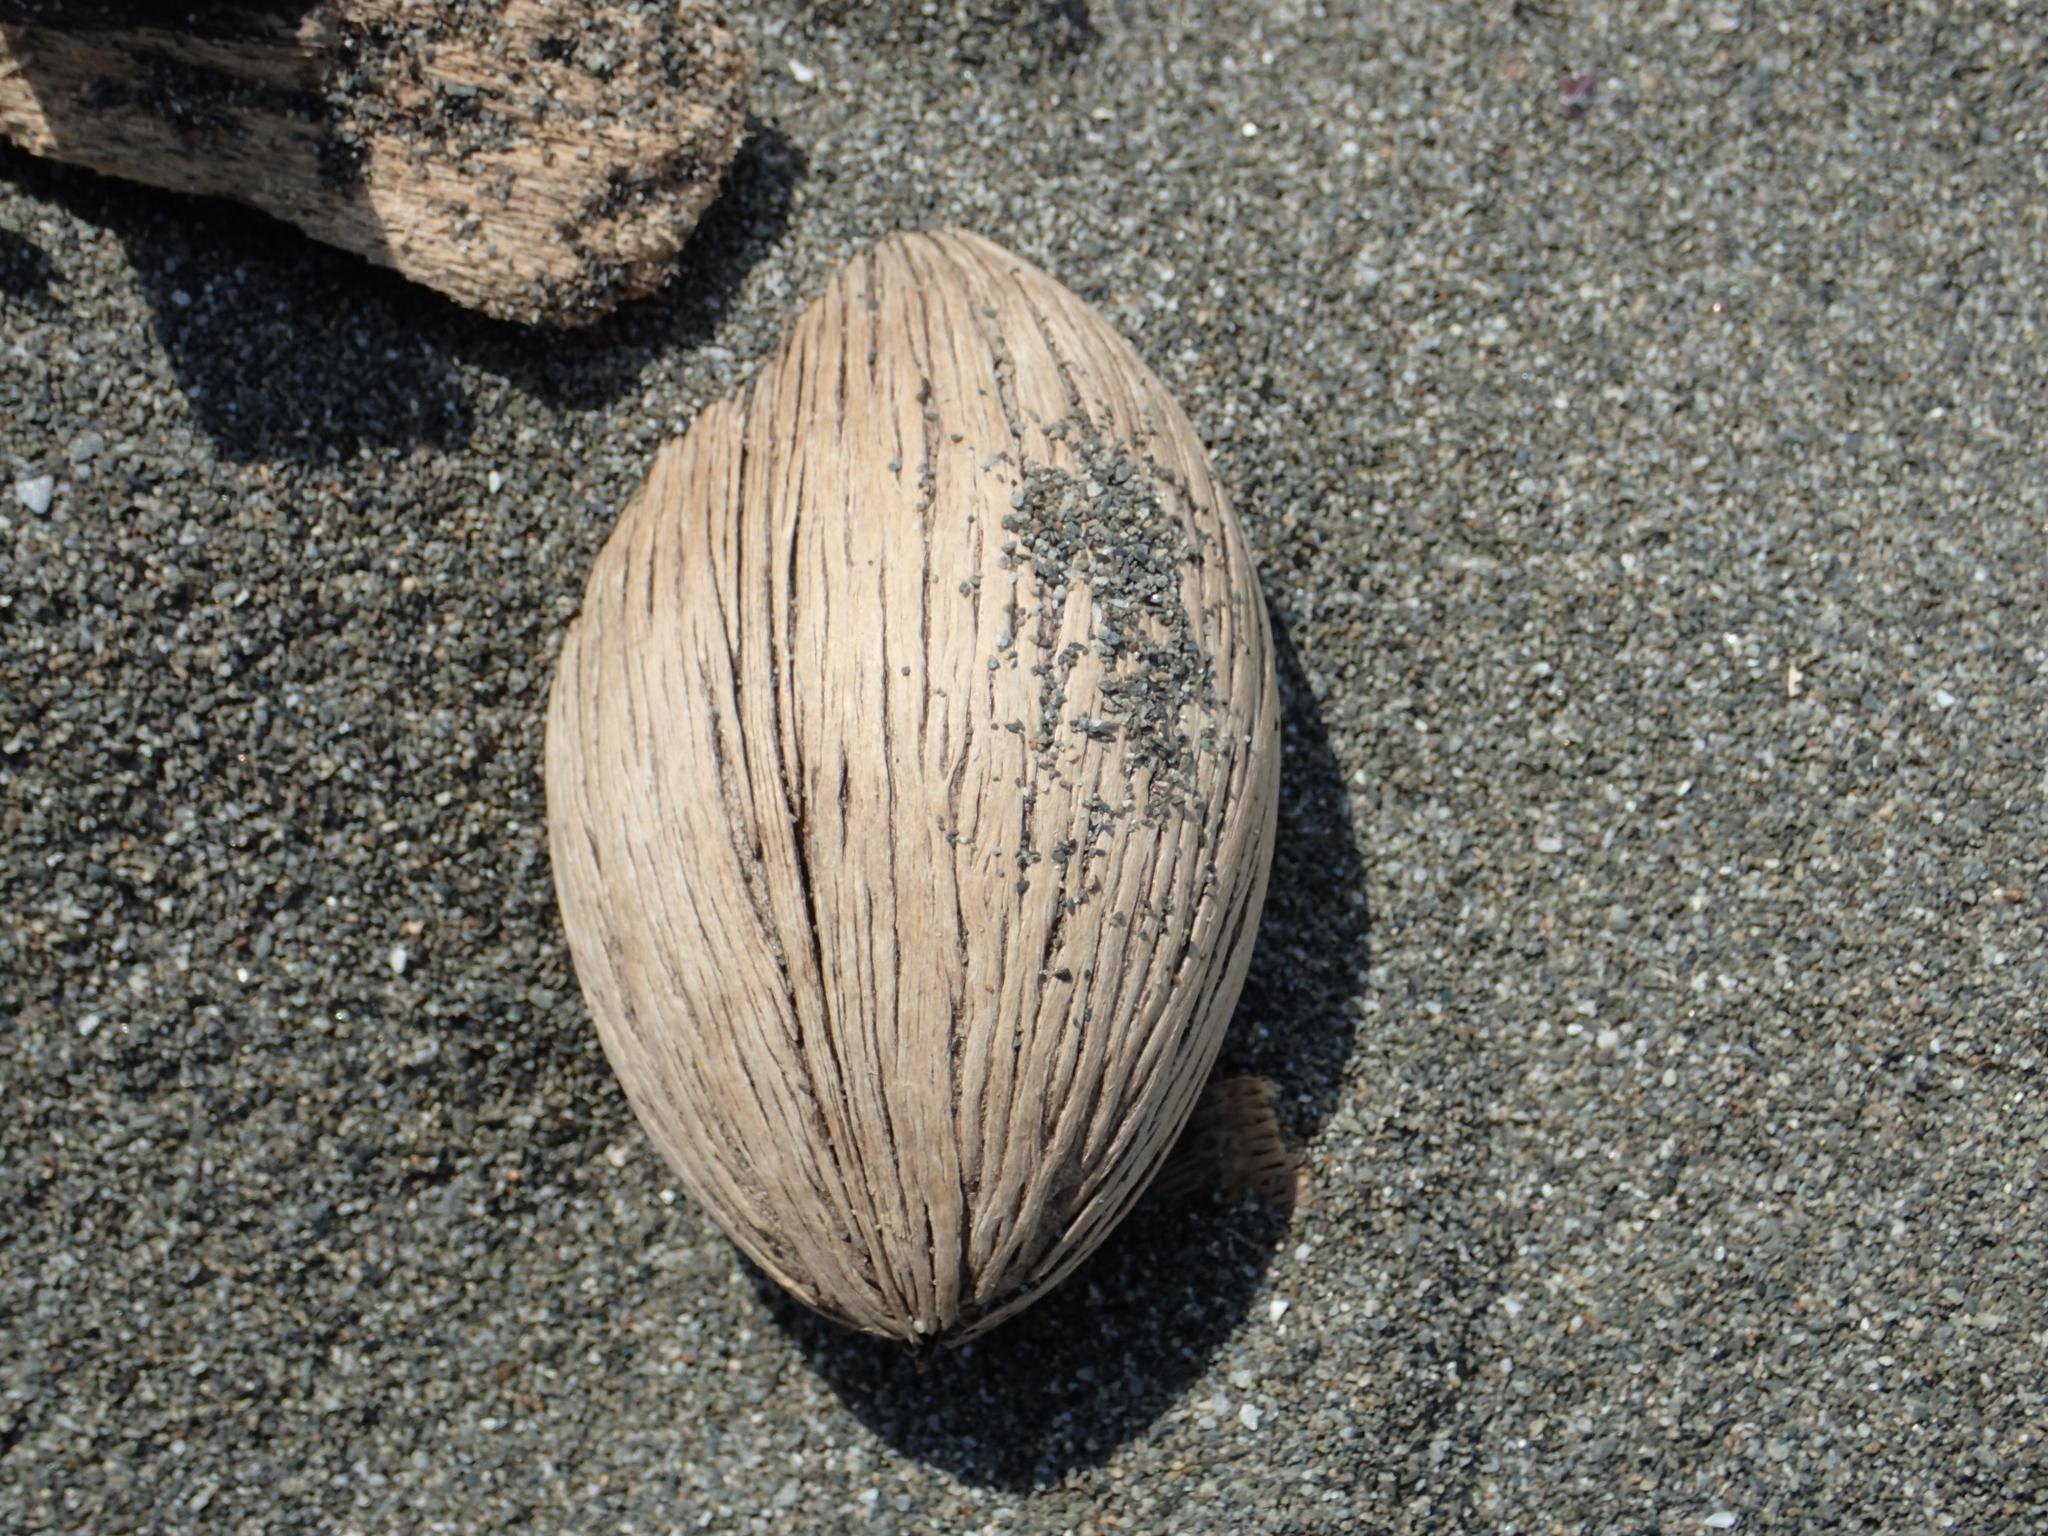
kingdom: Plantae
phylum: Tracheophyta
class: Magnoliopsida
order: Gentianales
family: Apocynaceae
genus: Cerbera
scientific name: Cerbera manghas
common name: Reva
